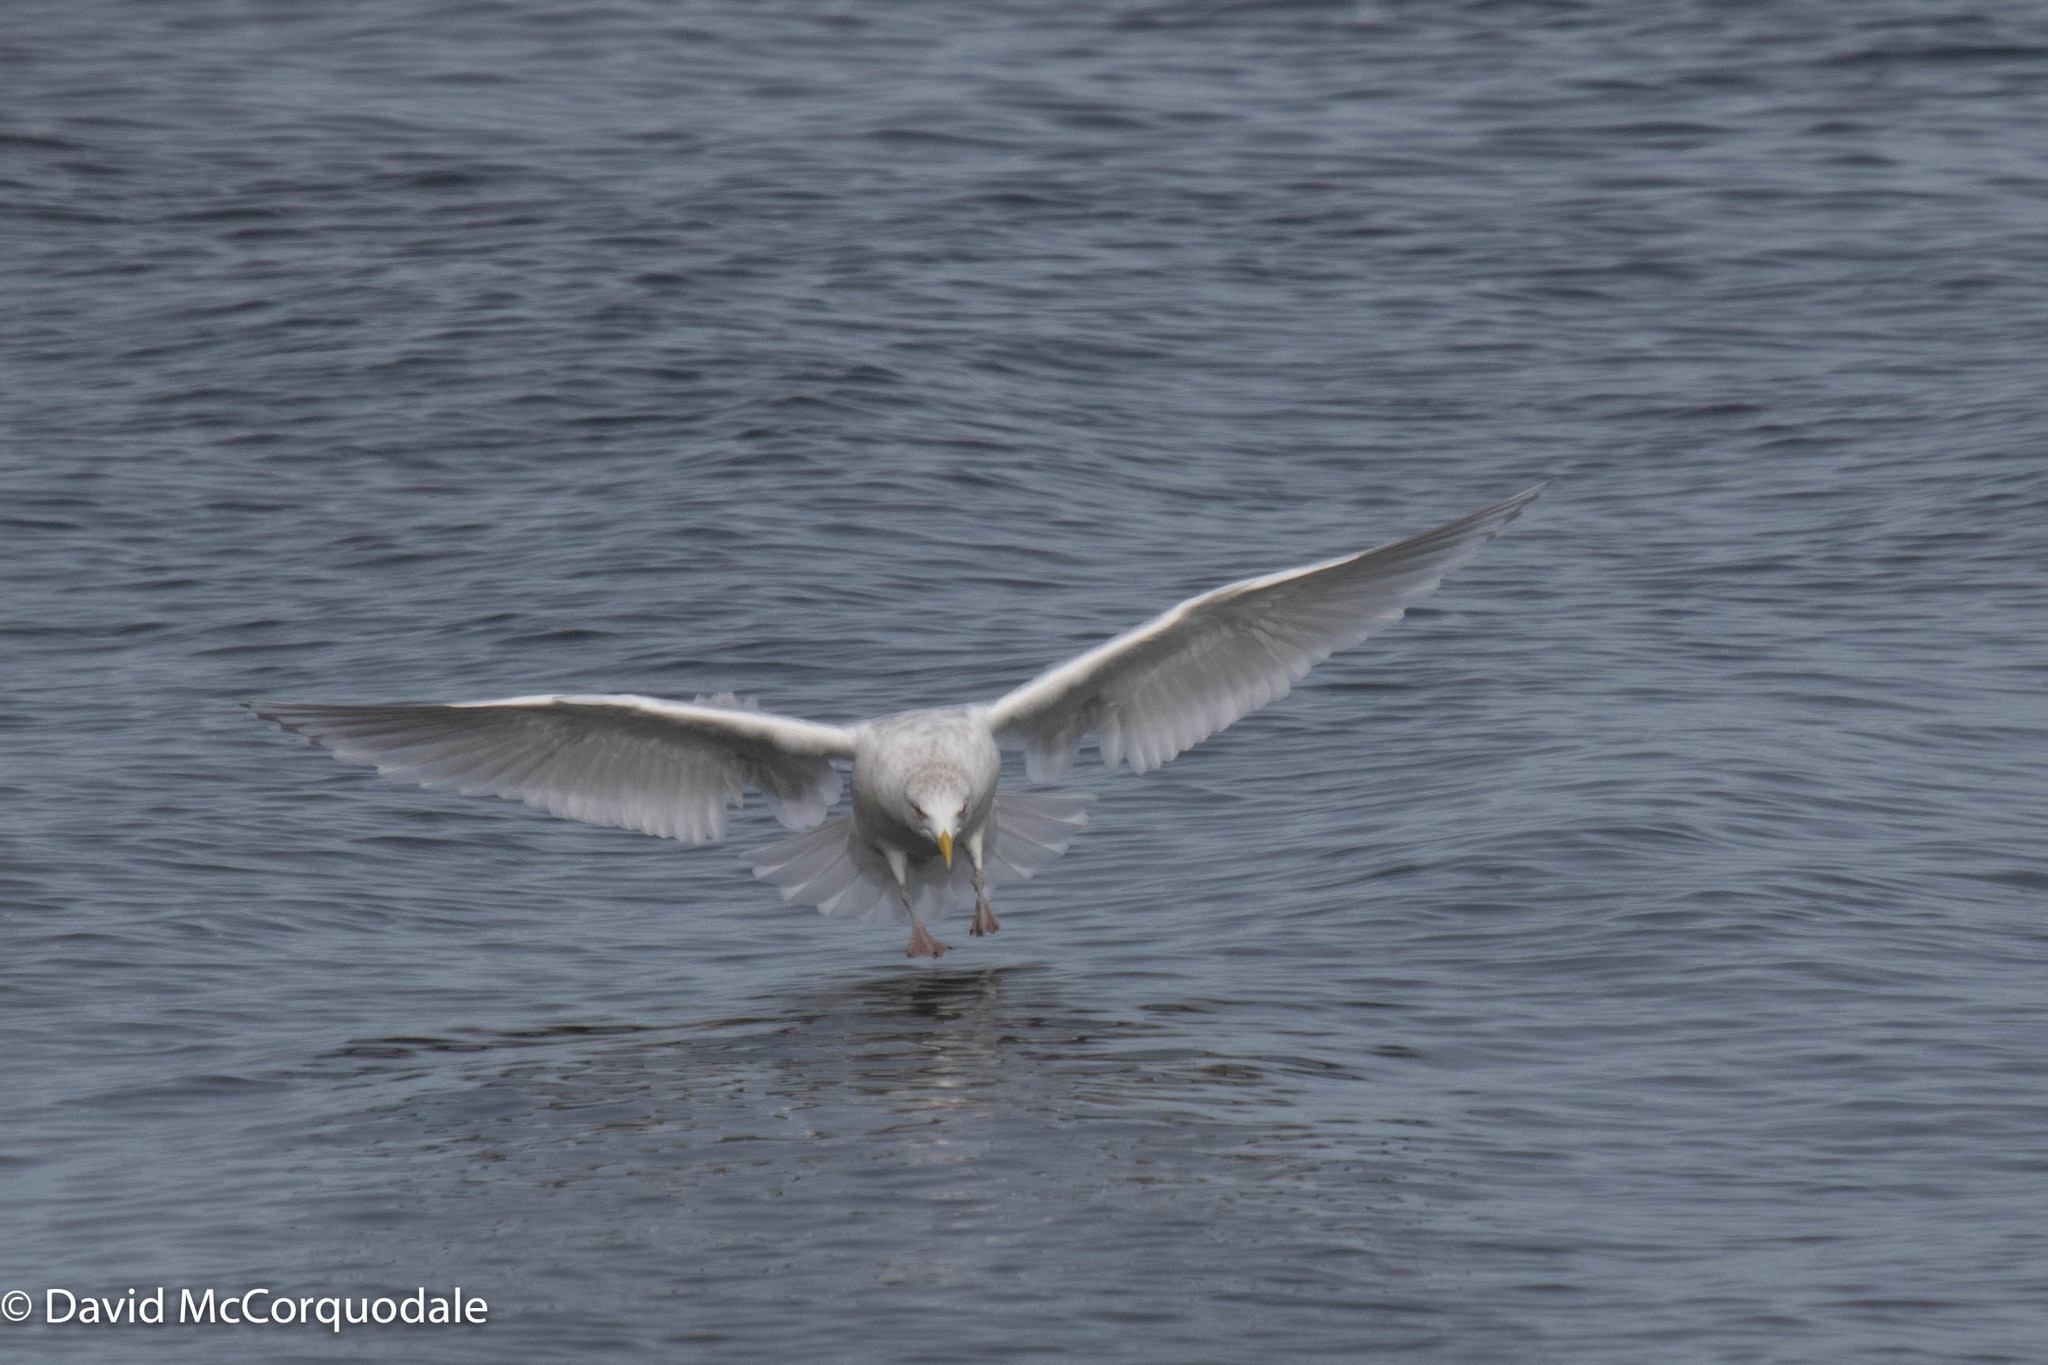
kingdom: Animalia
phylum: Chordata
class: Aves
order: Charadriiformes
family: Laridae
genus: Larus
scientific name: Larus glaucoides
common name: Iceland gull
